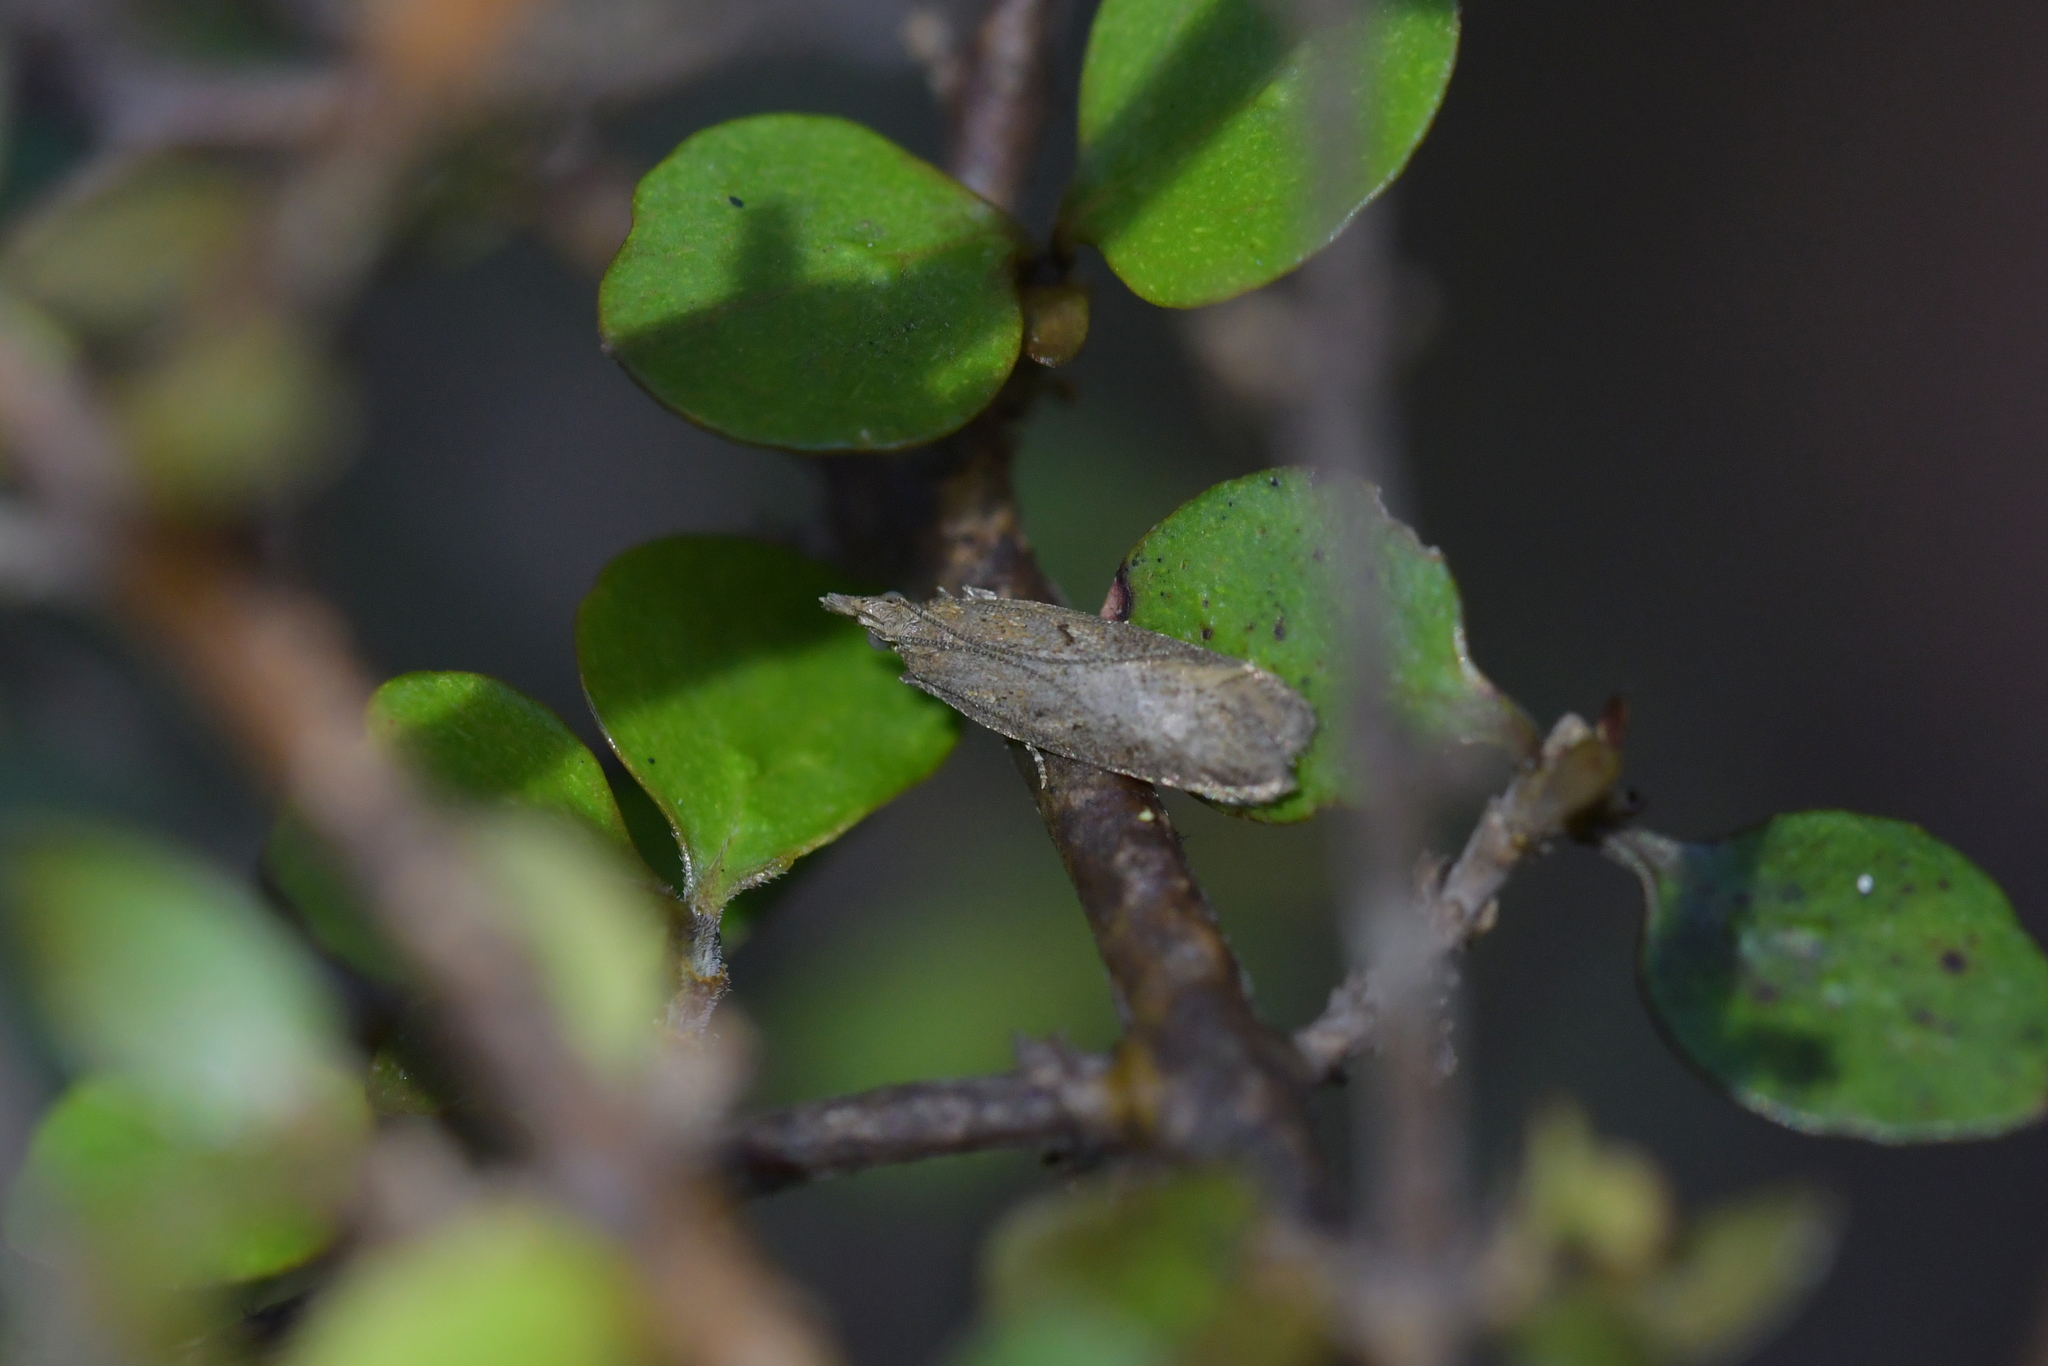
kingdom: Animalia
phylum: Arthropoda
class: Insecta
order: Lepidoptera
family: Oecophoridae
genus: Thamnosara
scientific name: Thamnosara sublitella
